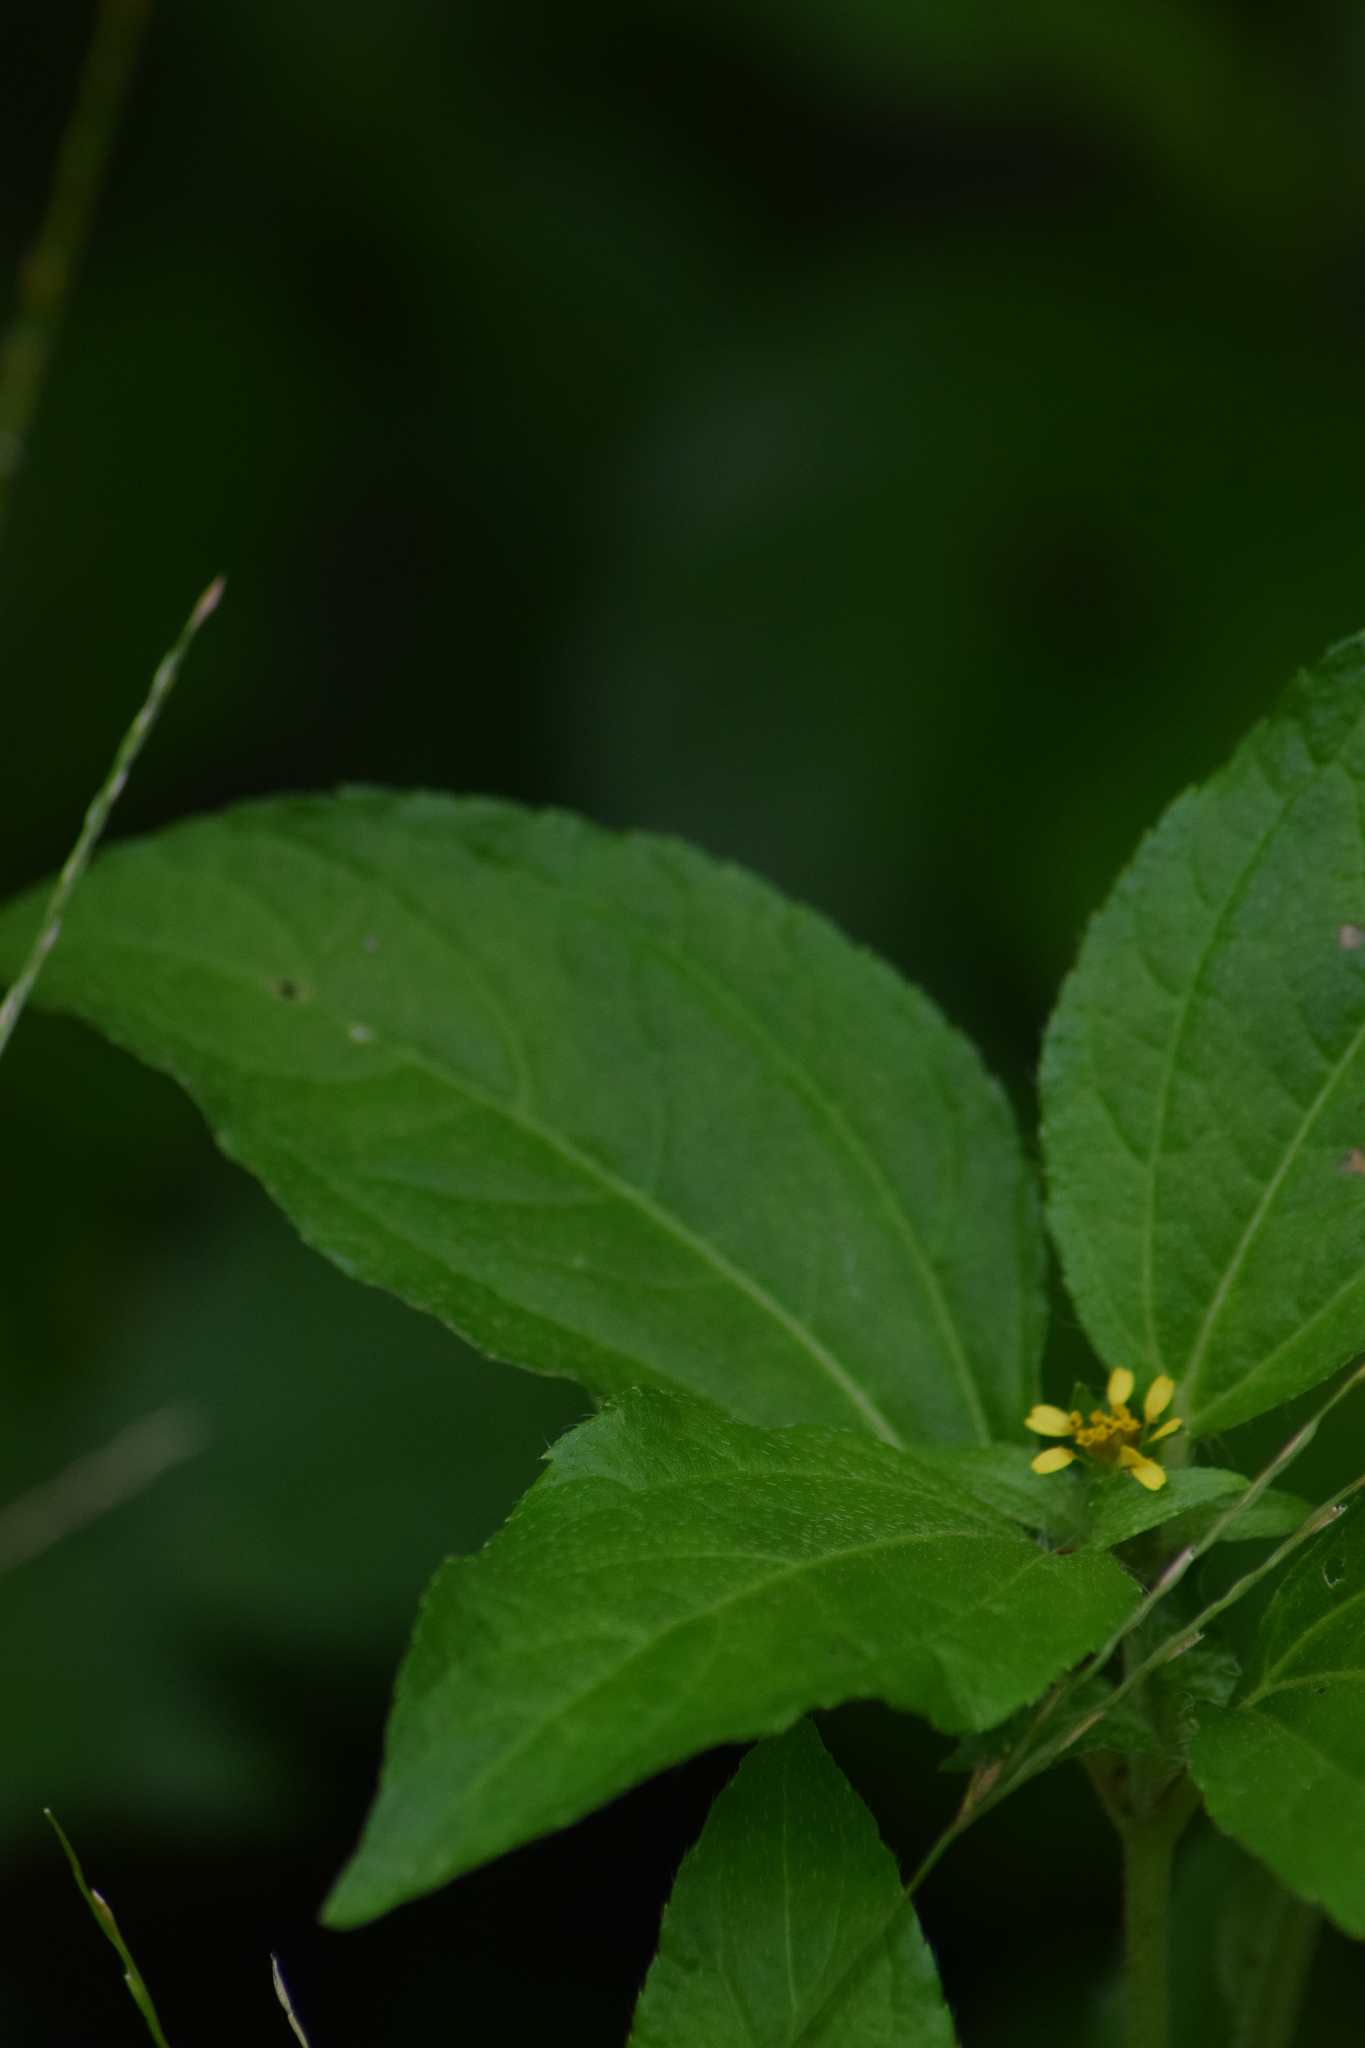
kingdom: Plantae
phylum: Tracheophyta
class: Magnoliopsida
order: Asterales
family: Asteraceae
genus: Synedrella
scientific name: Synedrella nodiflora
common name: Nodeweed
